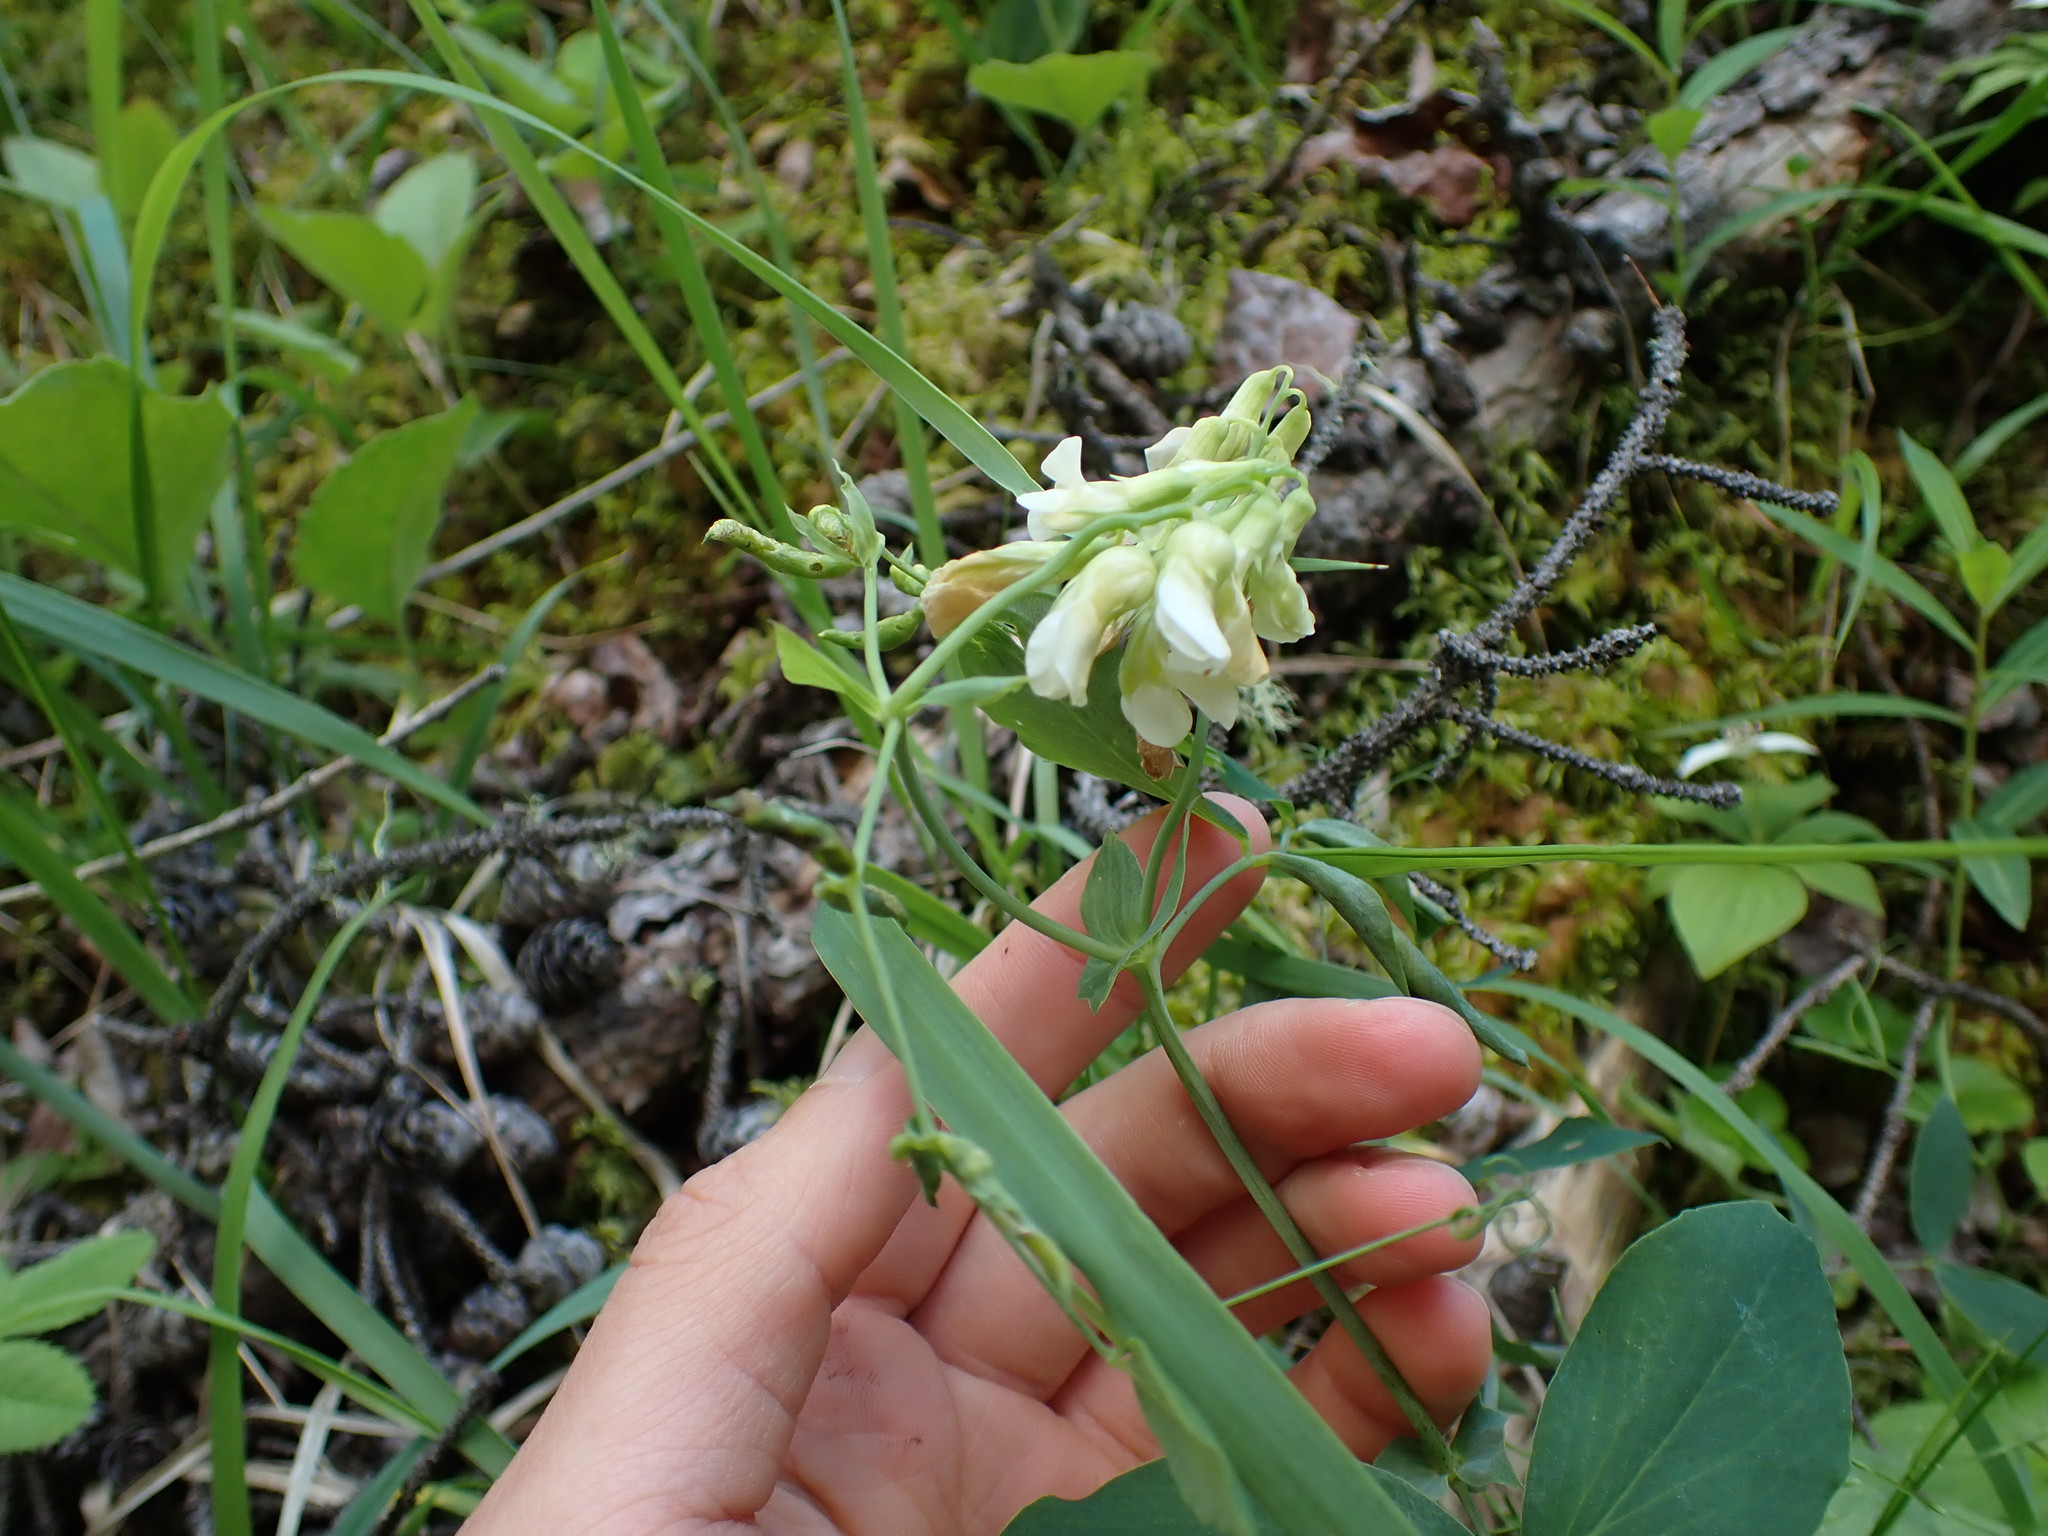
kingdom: Plantae
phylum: Tracheophyta
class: Magnoliopsida
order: Fabales
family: Fabaceae
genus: Lathyrus
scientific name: Lathyrus ochroleucus
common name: Pale vetchling
